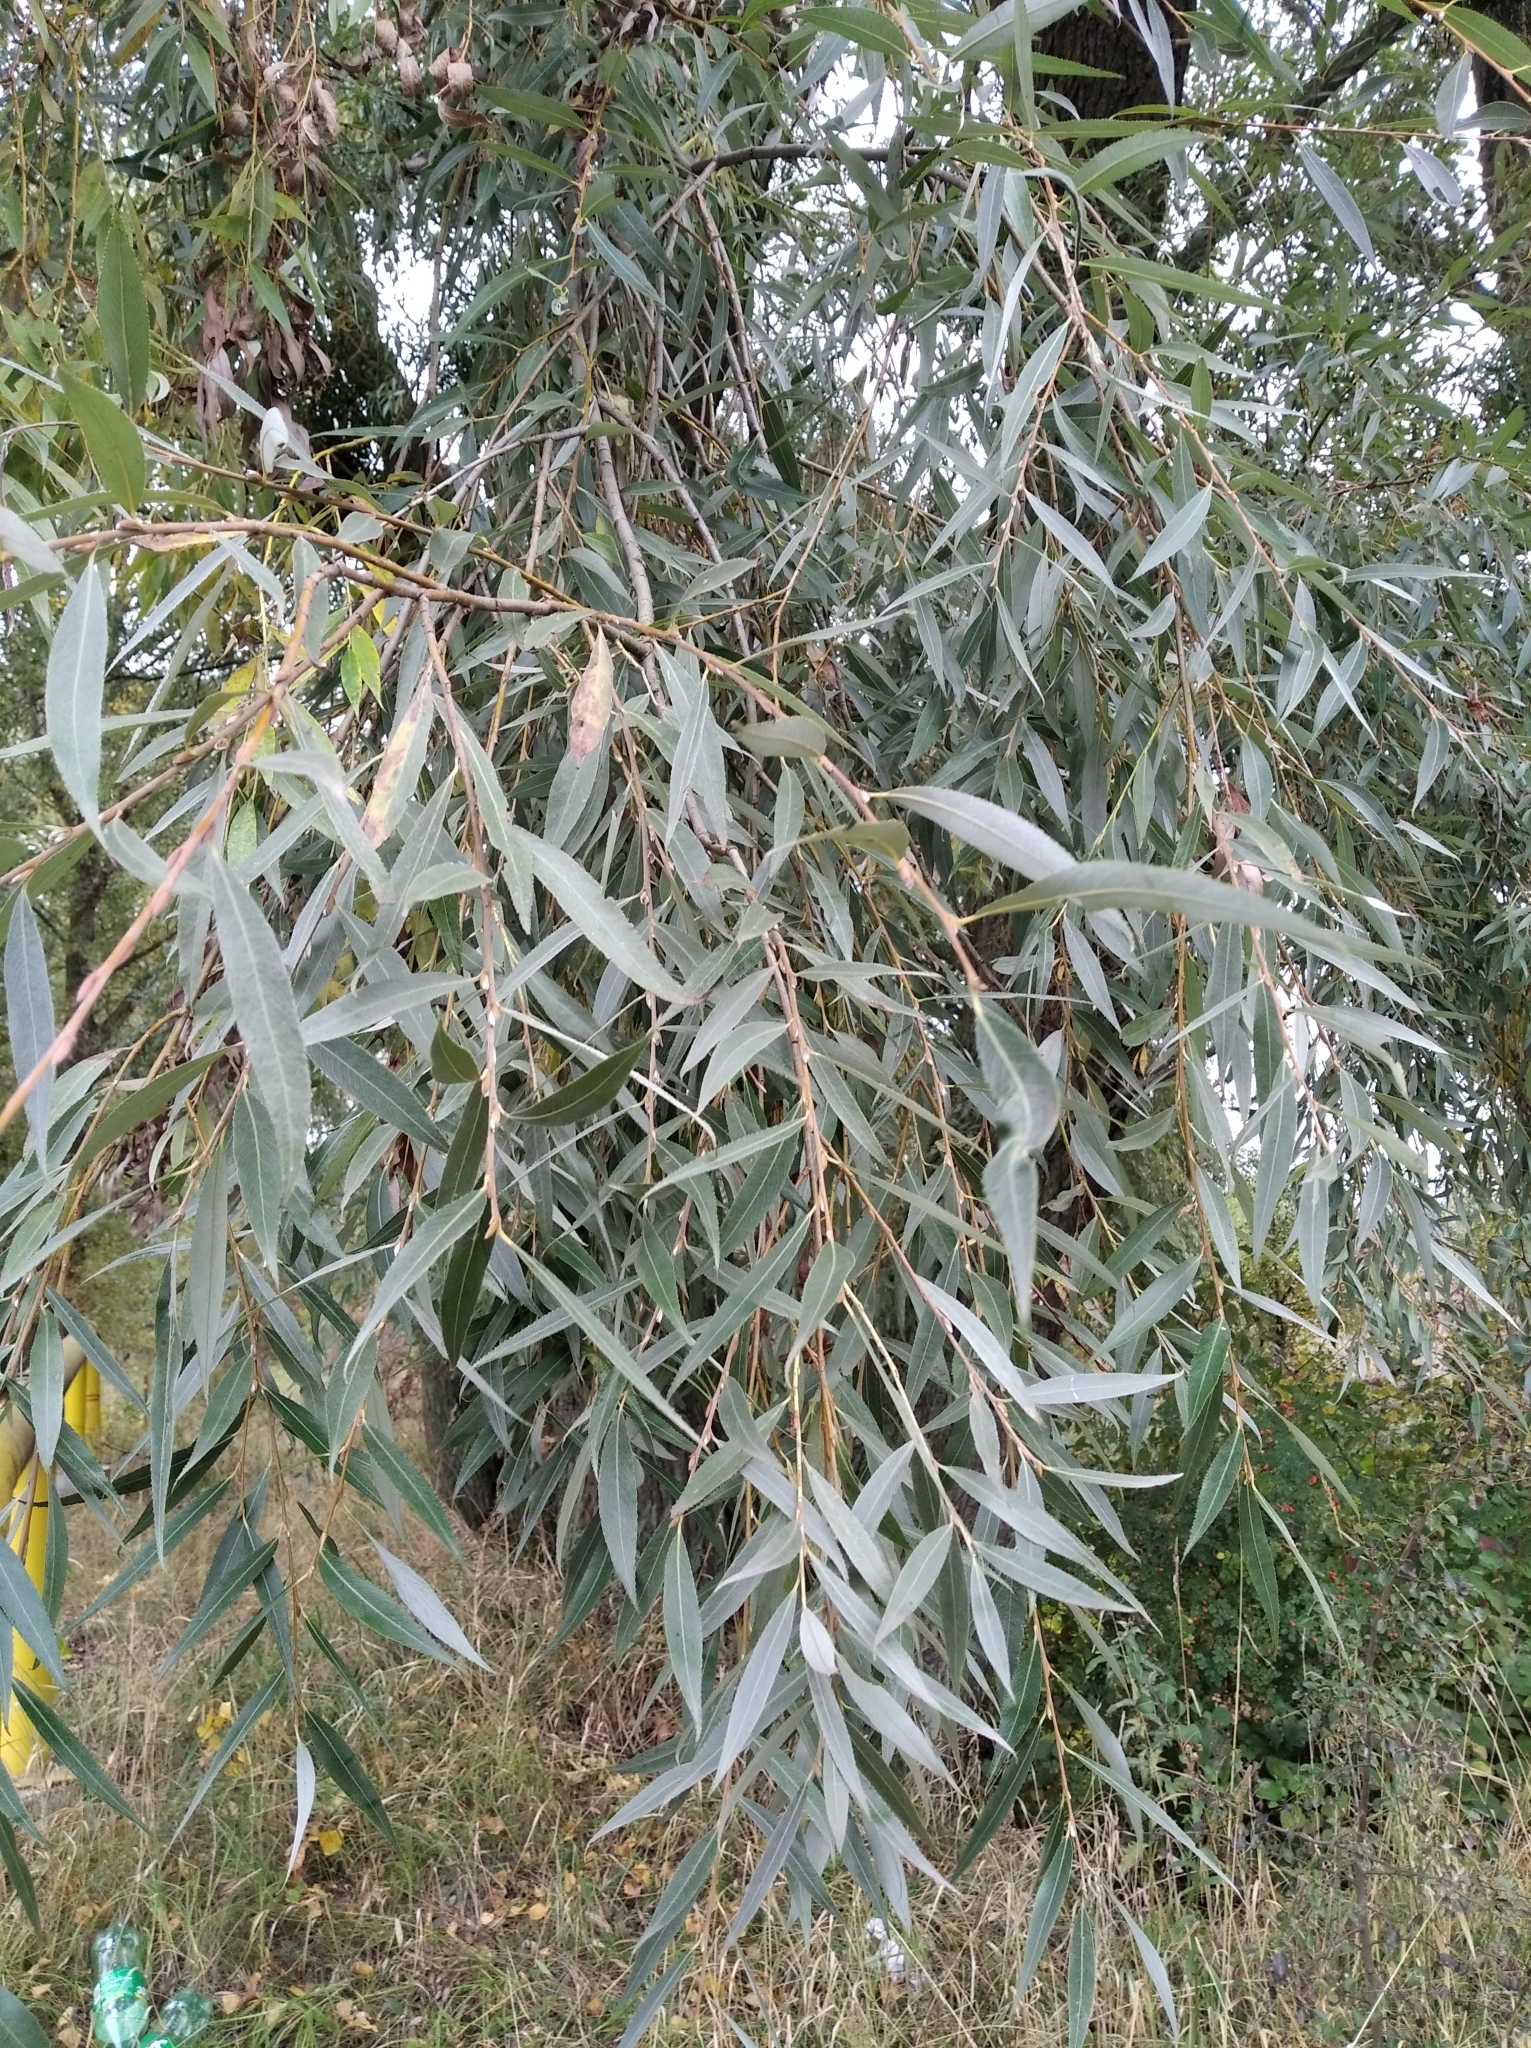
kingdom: Plantae
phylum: Tracheophyta
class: Magnoliopsida
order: Malpighiales
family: Salicaceae
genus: Salix
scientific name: Salix alba
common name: White willow
